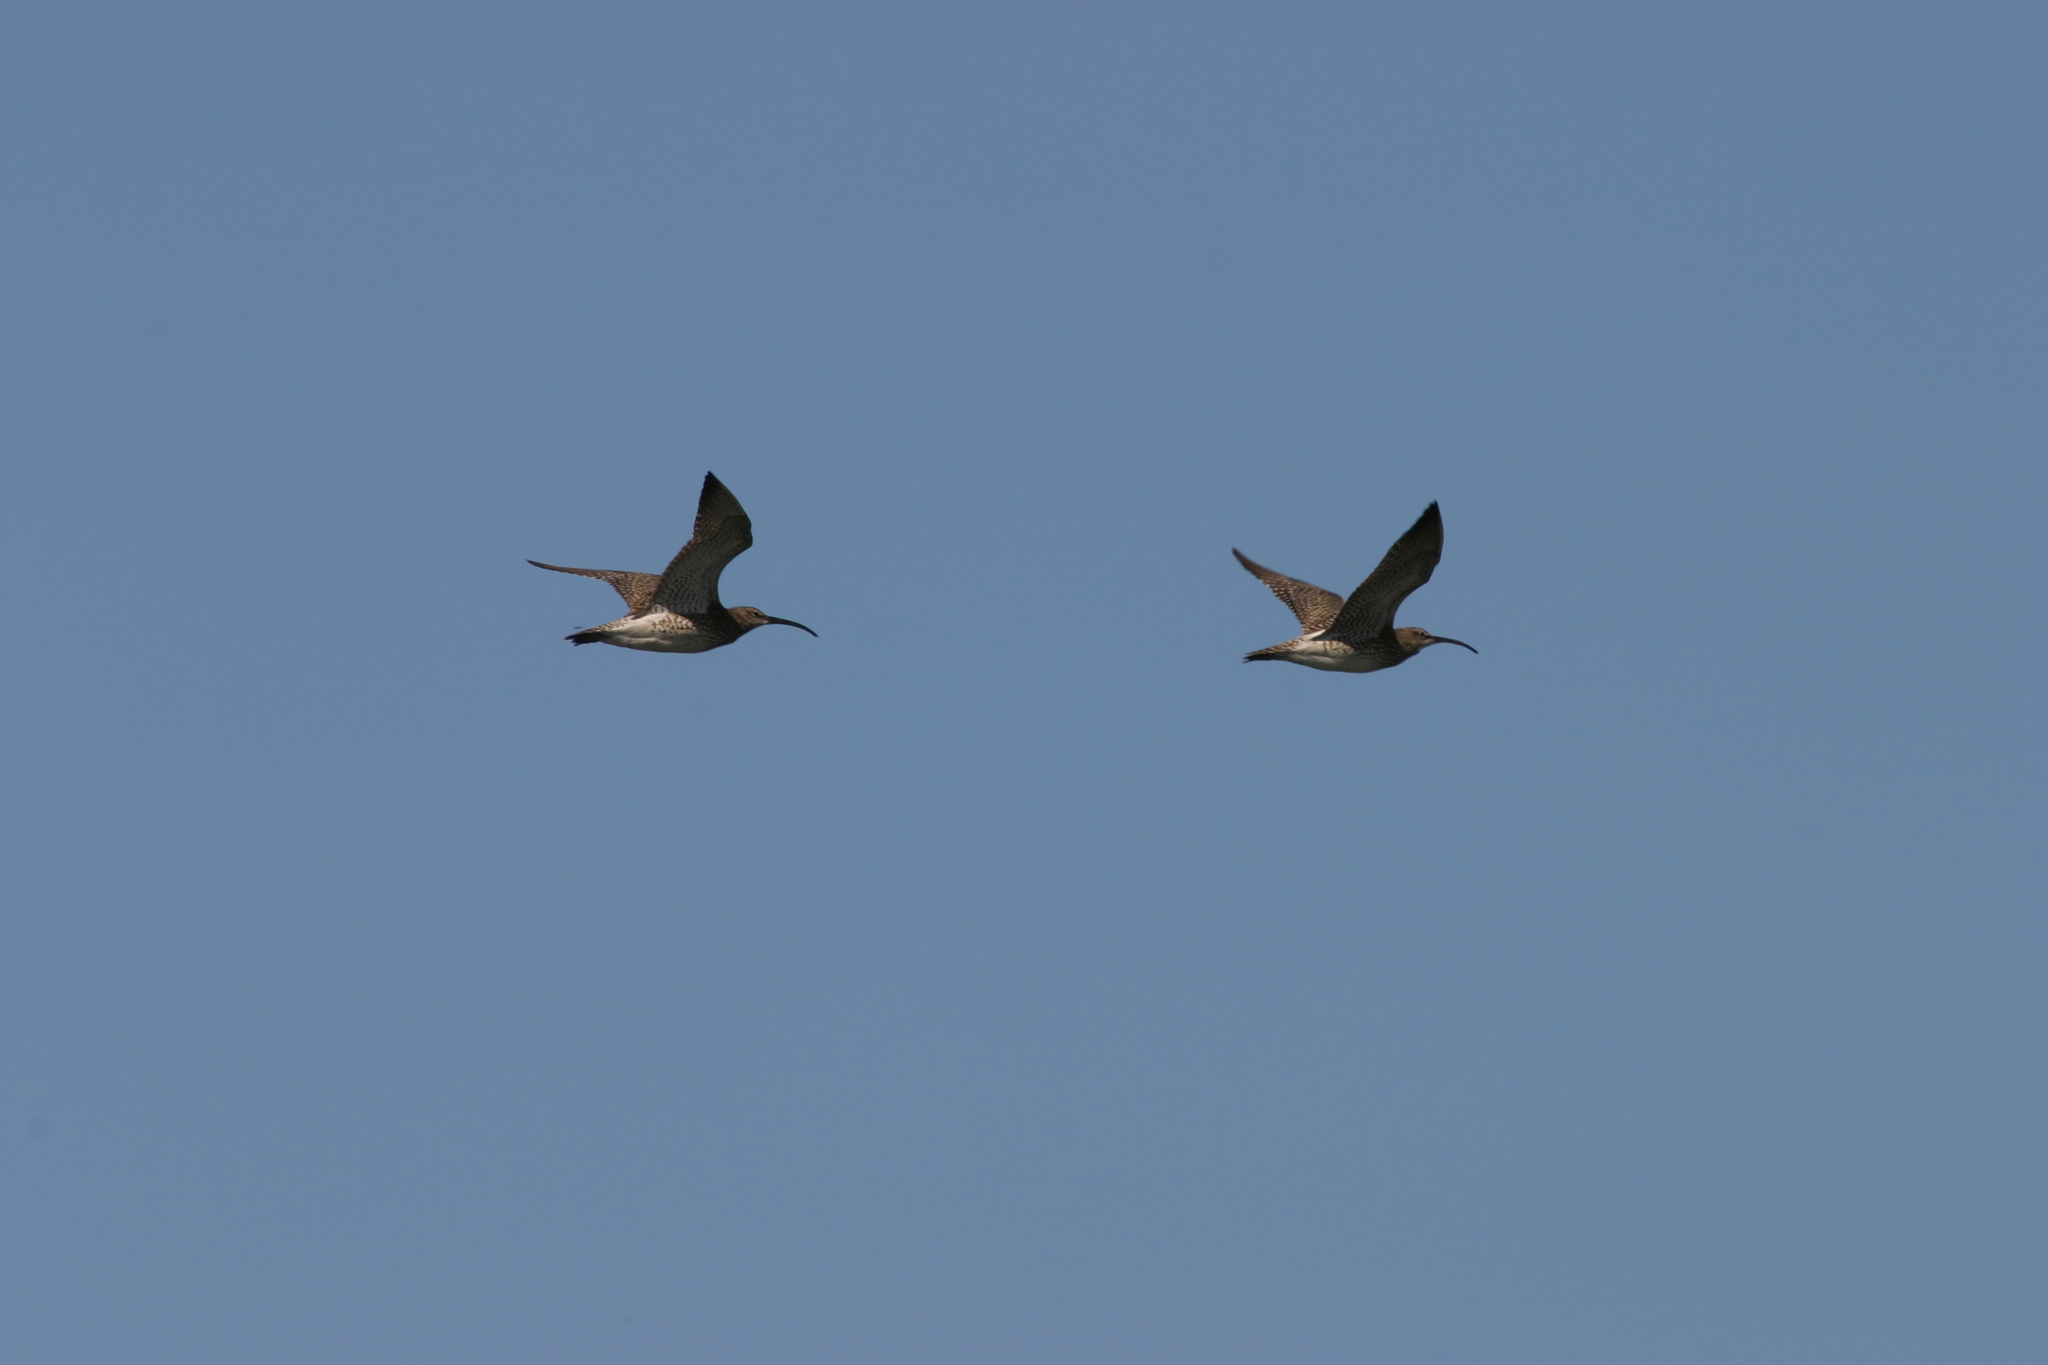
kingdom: Animalia
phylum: Chordata
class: Aves
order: Charadriiformes
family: Scolopacidae
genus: Numenius
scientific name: Numenius phaeopus
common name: Whimbrel
